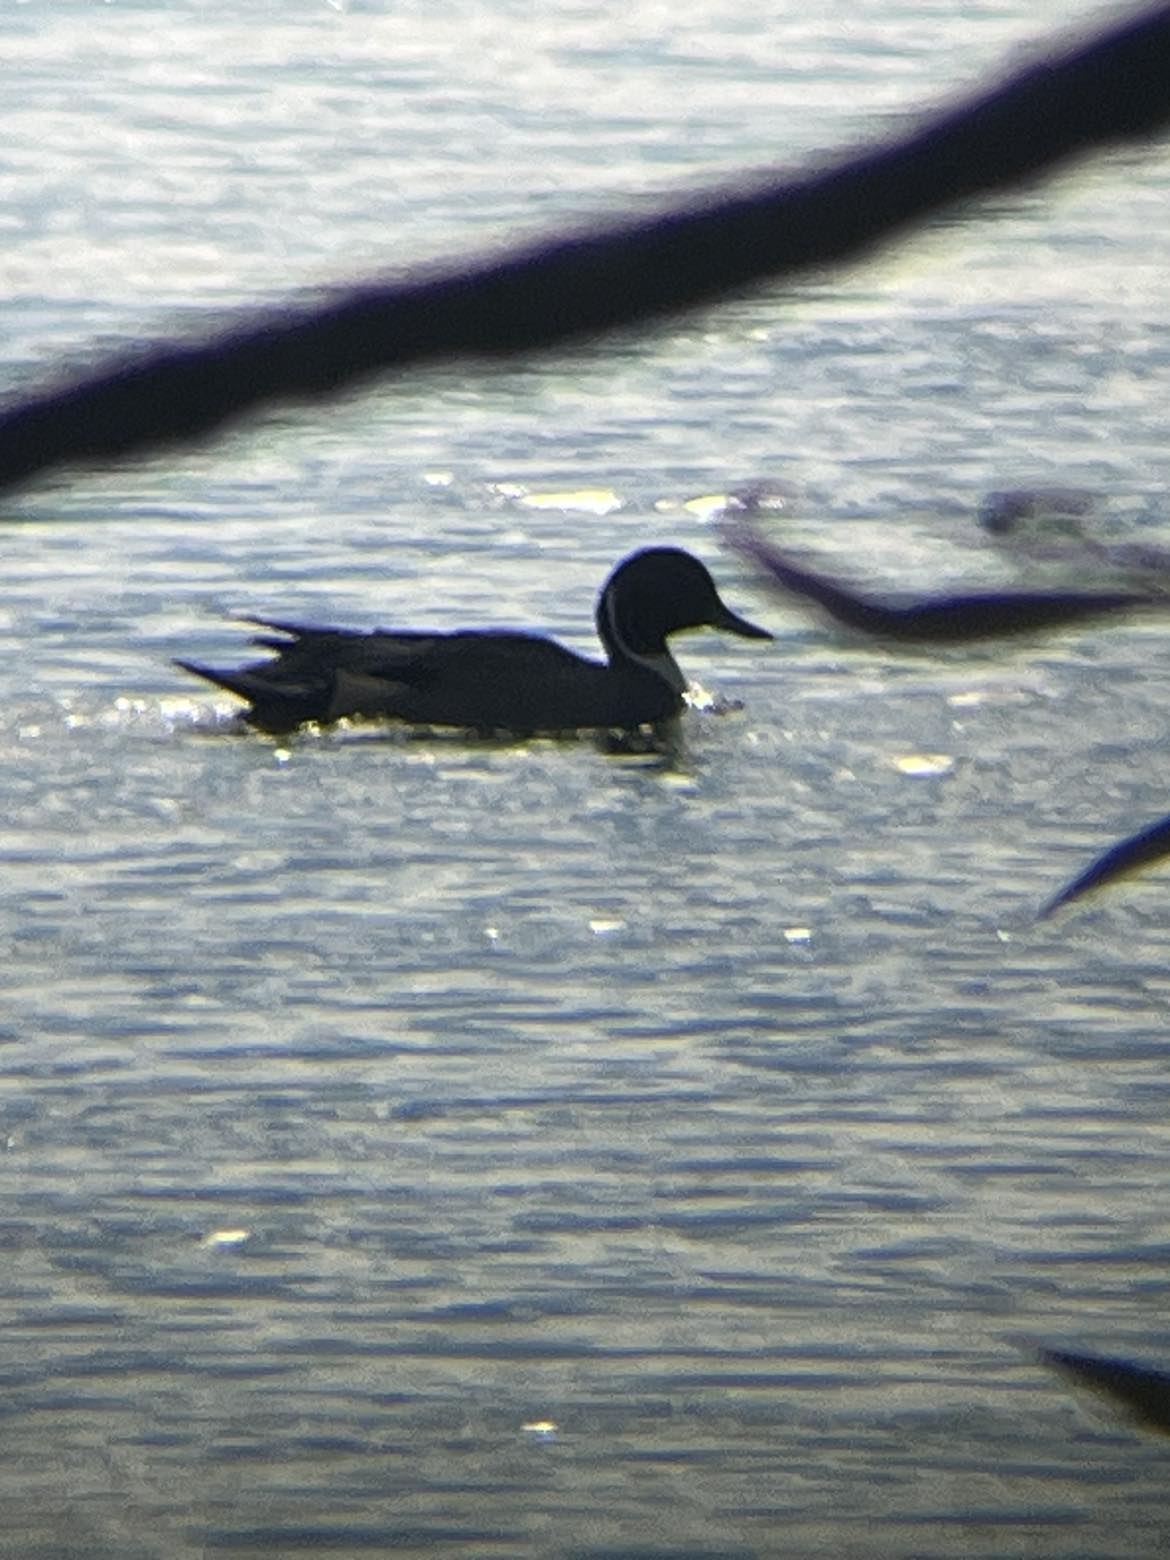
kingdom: Animalia
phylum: Chordata
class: Aves
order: Anseriformes
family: Anatidae
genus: Anas
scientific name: Anas acuta
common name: Northern pintail
